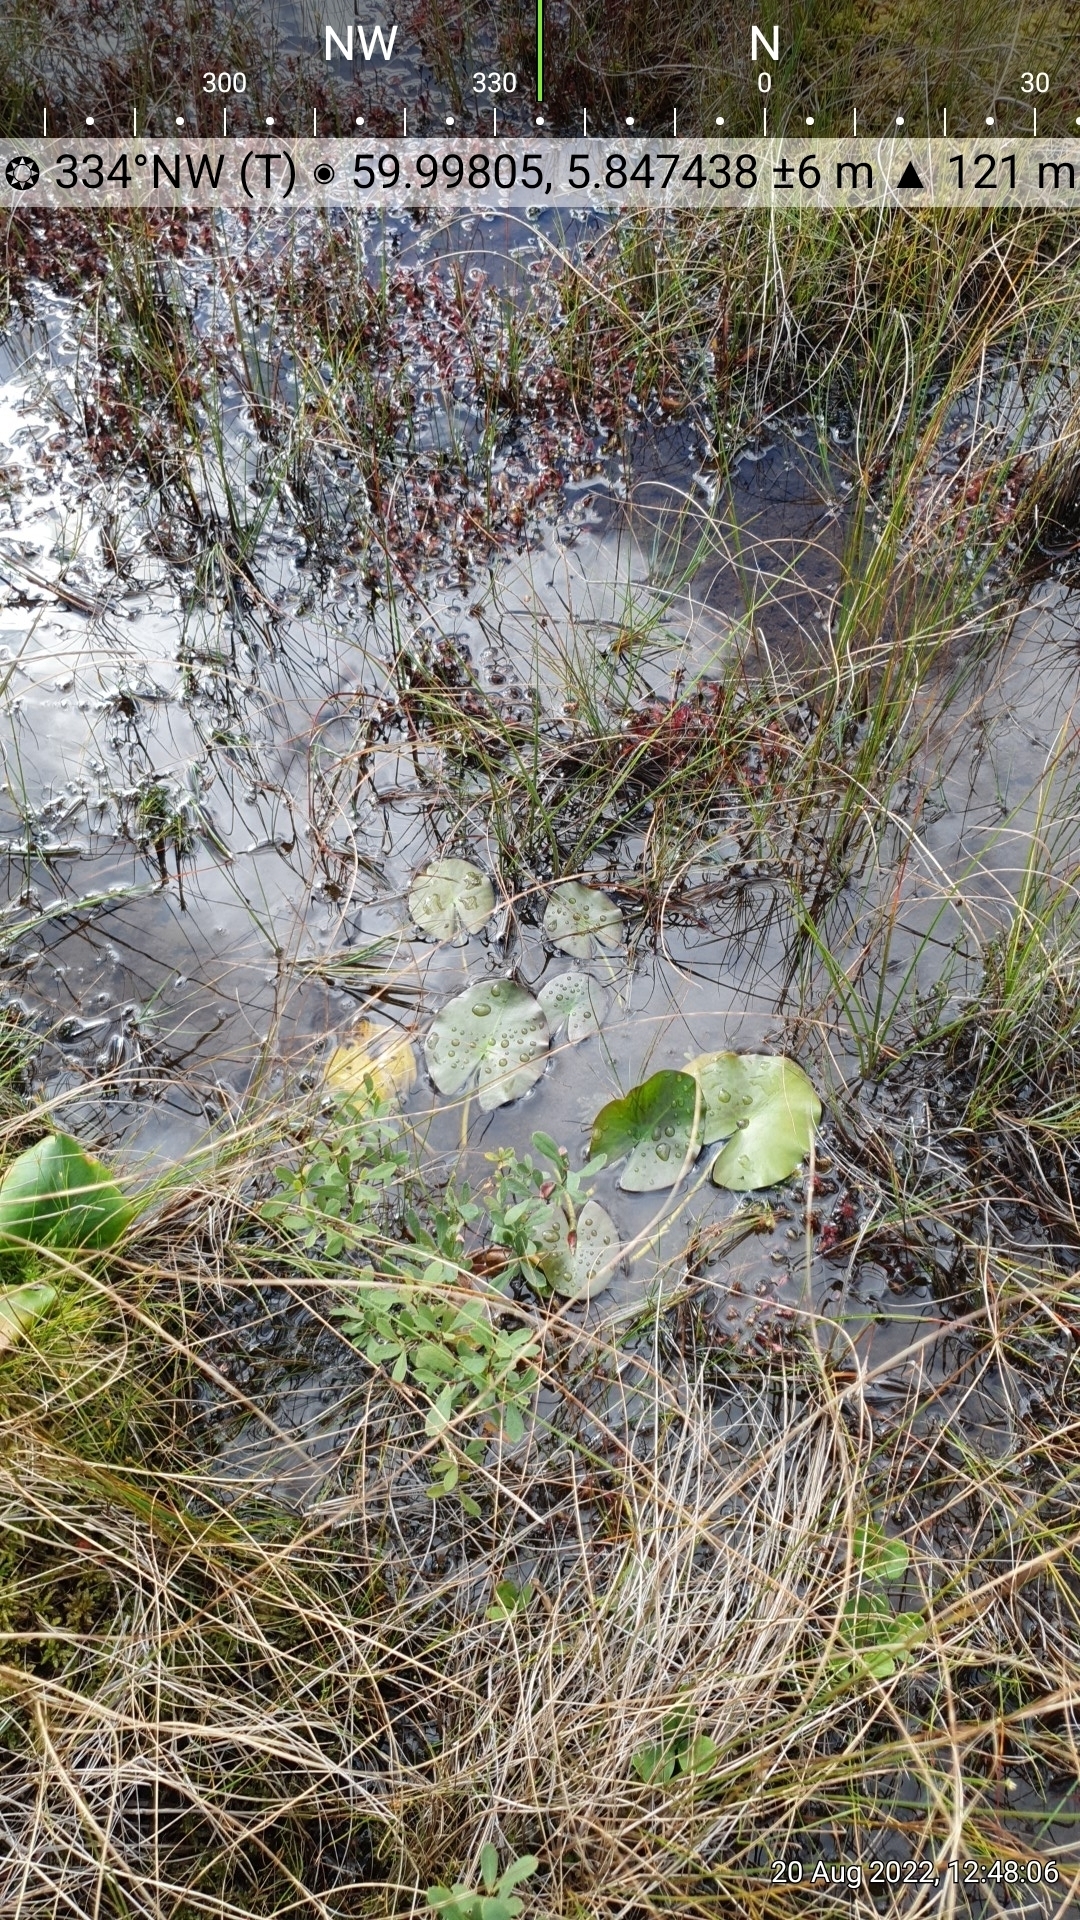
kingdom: Plantae
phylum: Tracheophyta
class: Magnoliopsida
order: Caryophyllales
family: Droseraceae
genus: Drosera
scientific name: Drosera anglica
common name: Great sundew
